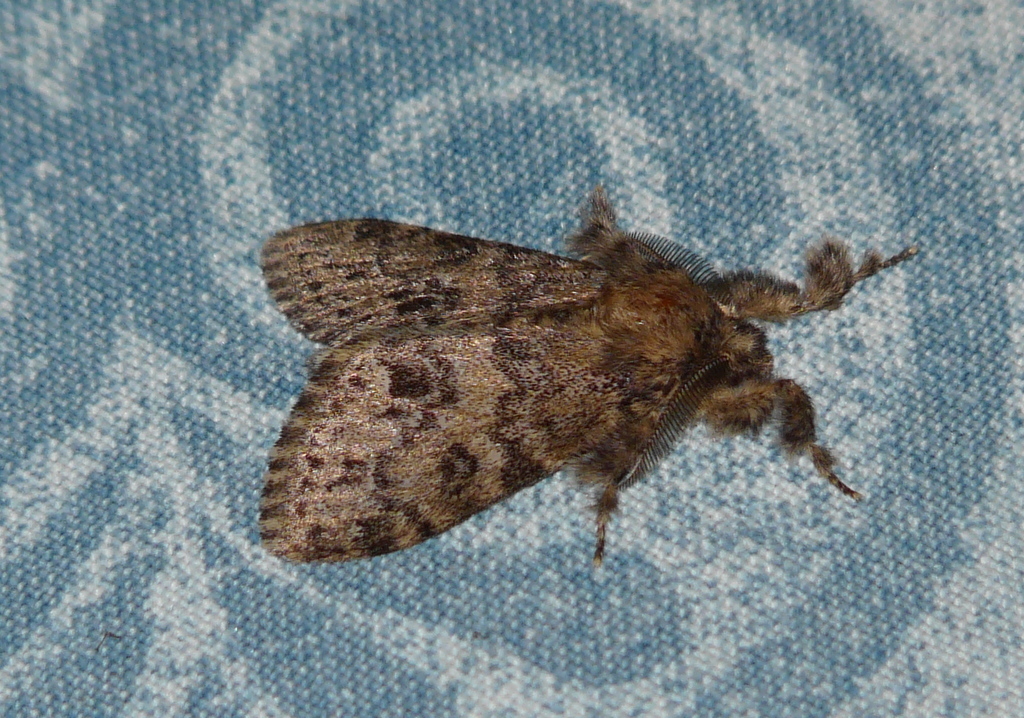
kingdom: Animalia
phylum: Arthropoda
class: Insecta
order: Lepidoptera
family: Erebidae
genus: Dasychira
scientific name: Dasychira extorta
